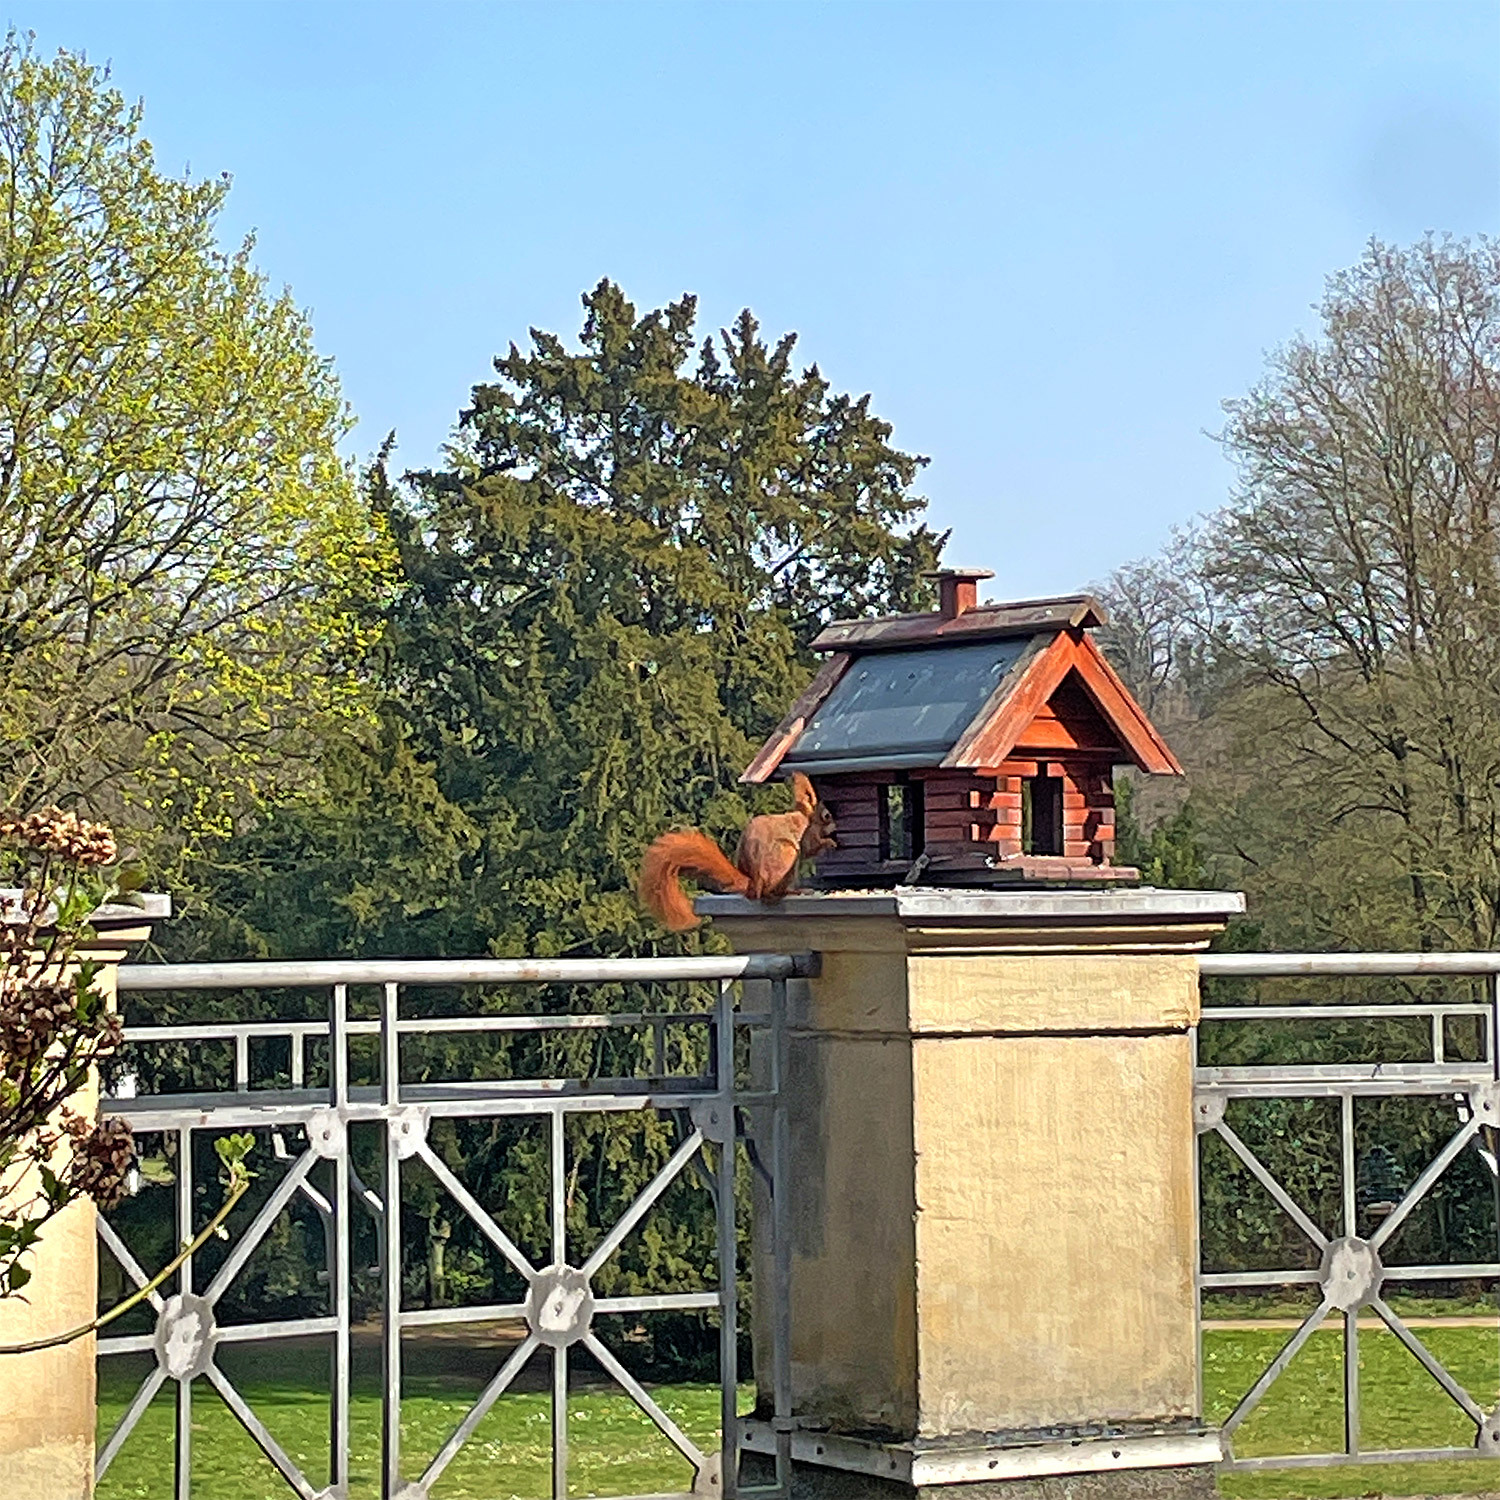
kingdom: Animalia
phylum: Chordata
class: Mammalia
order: Rodentia
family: Sciuridae
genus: Sciurus
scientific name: Sciurus vulgaris
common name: Eurasian red squirrel
